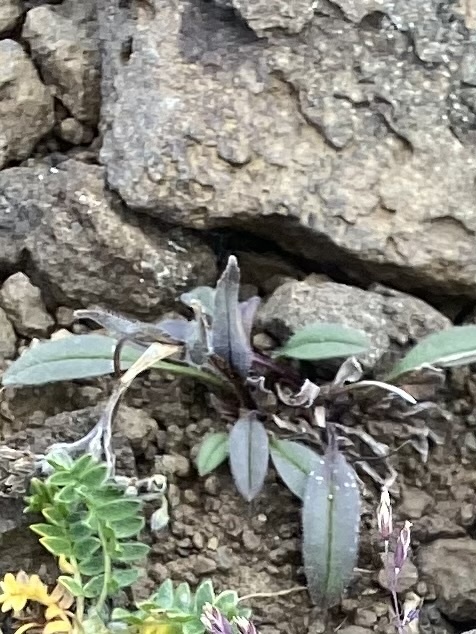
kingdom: Plantae
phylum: Tracheophyta
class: Magnoliopsida
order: Boraginales
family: Boraginaceae
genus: Myosotis
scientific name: Myosotis asiatica
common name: Asian forget-me-not
